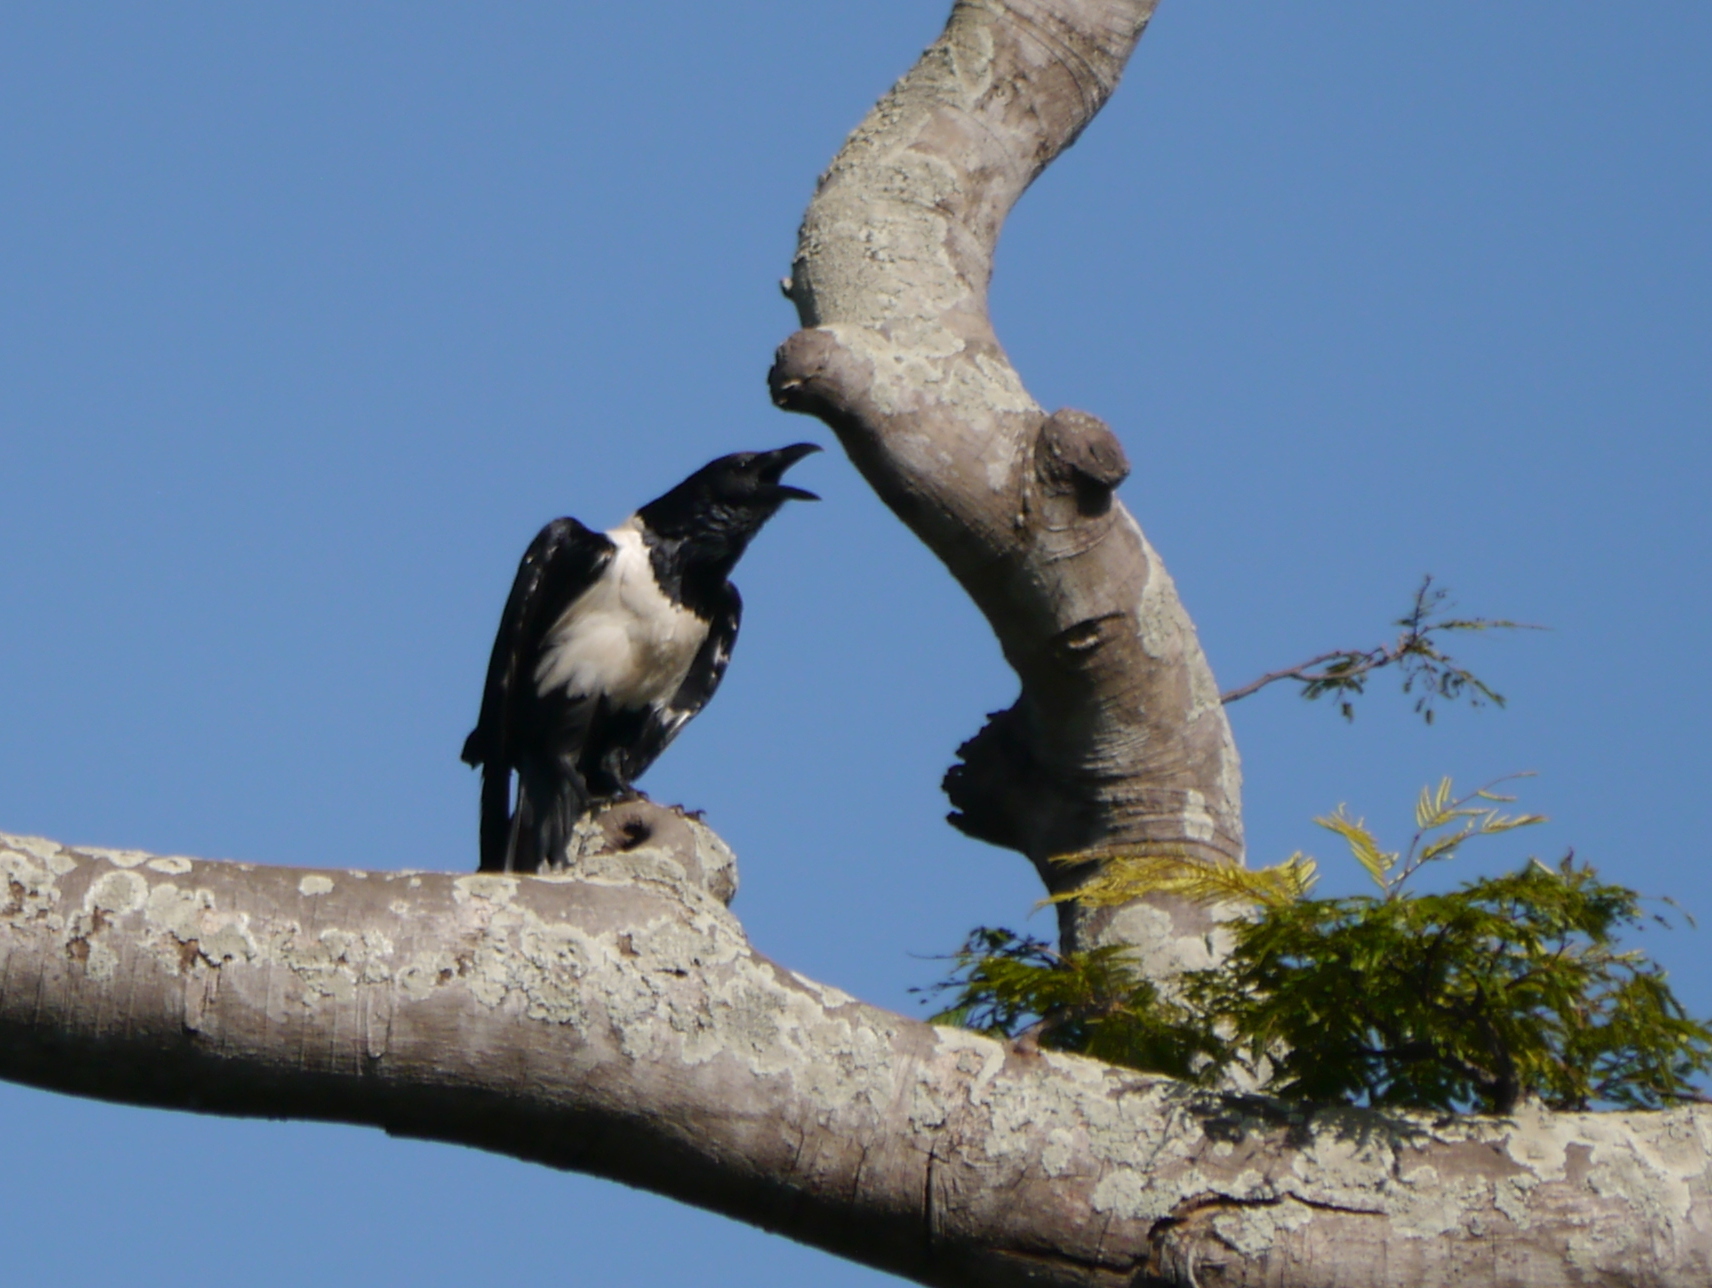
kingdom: Animalia
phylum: Chordata
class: Aves
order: Passeriformes
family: Corvidae
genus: Corvus
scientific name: Corvus albus
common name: Pied crow
